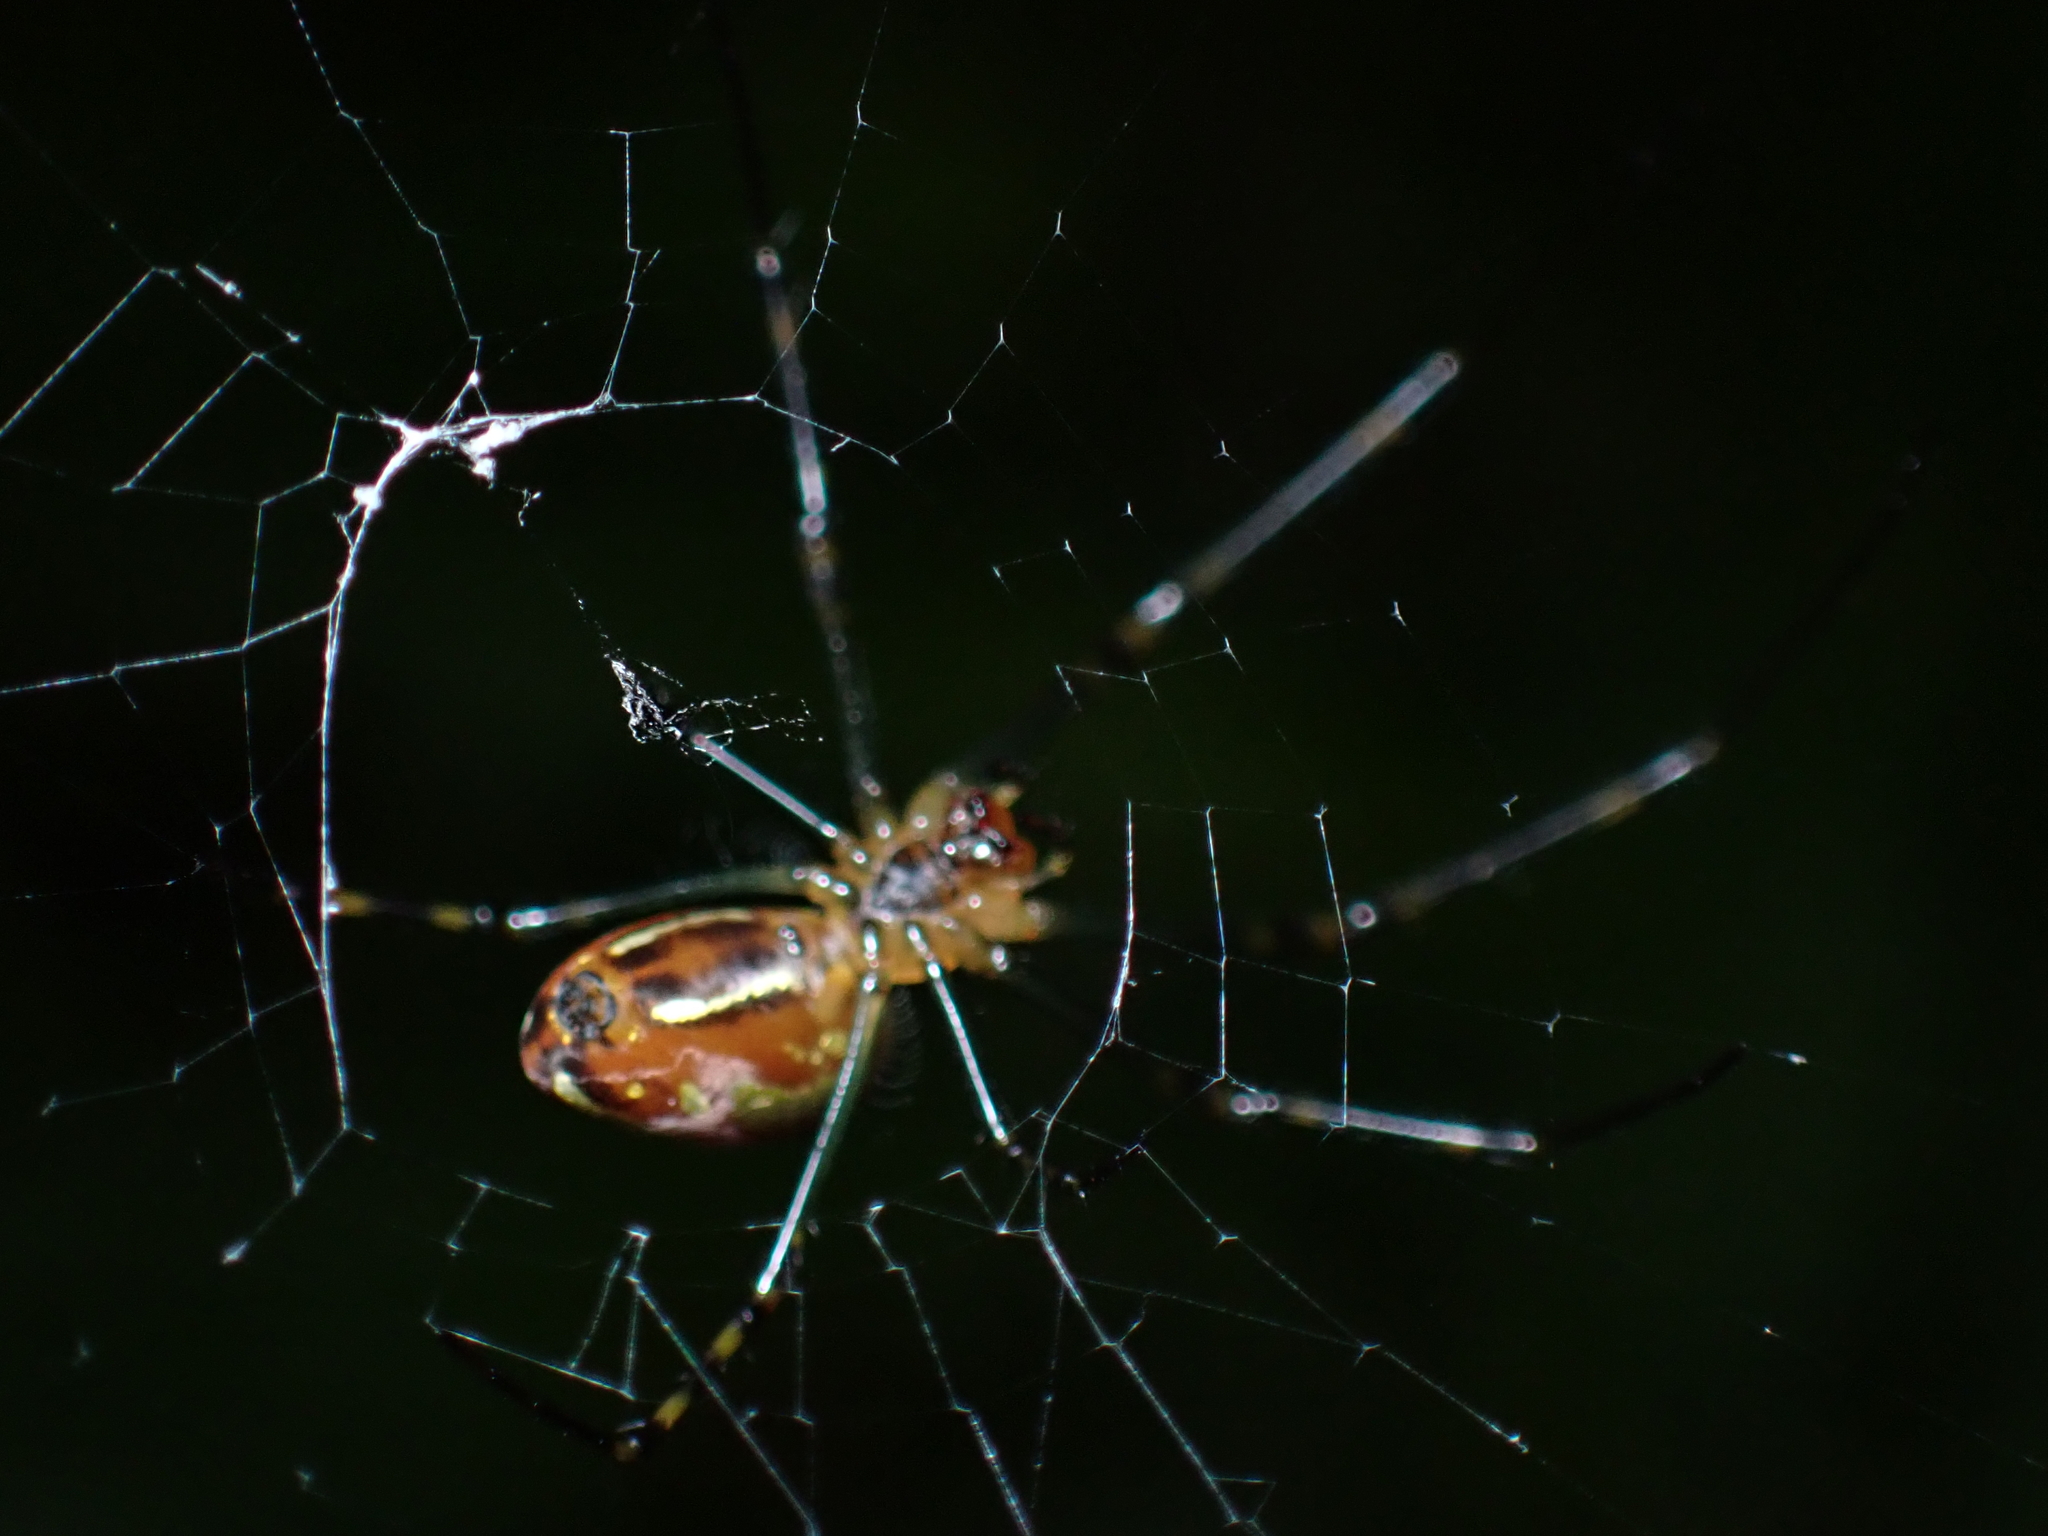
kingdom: Animalia
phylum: Arthropoda
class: Arachnida
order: Araneae
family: Tetragnathidae
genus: Leucauge
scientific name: Leucauge granulata
